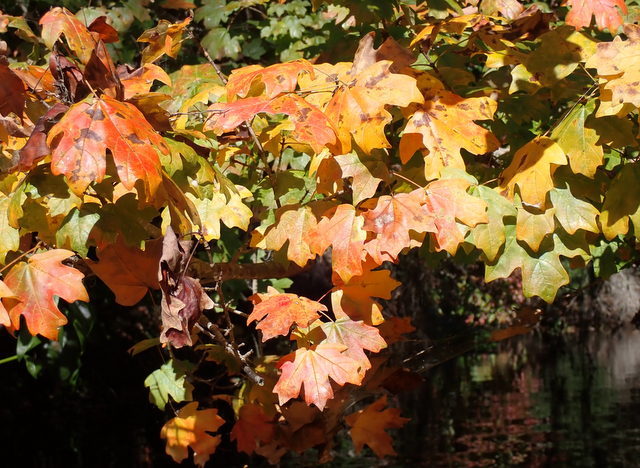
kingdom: Plantae
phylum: Tracheophyta
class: Magnoliopsida
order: Sapindales
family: Sapindaceae
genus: Acer
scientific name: Acer floridanum
